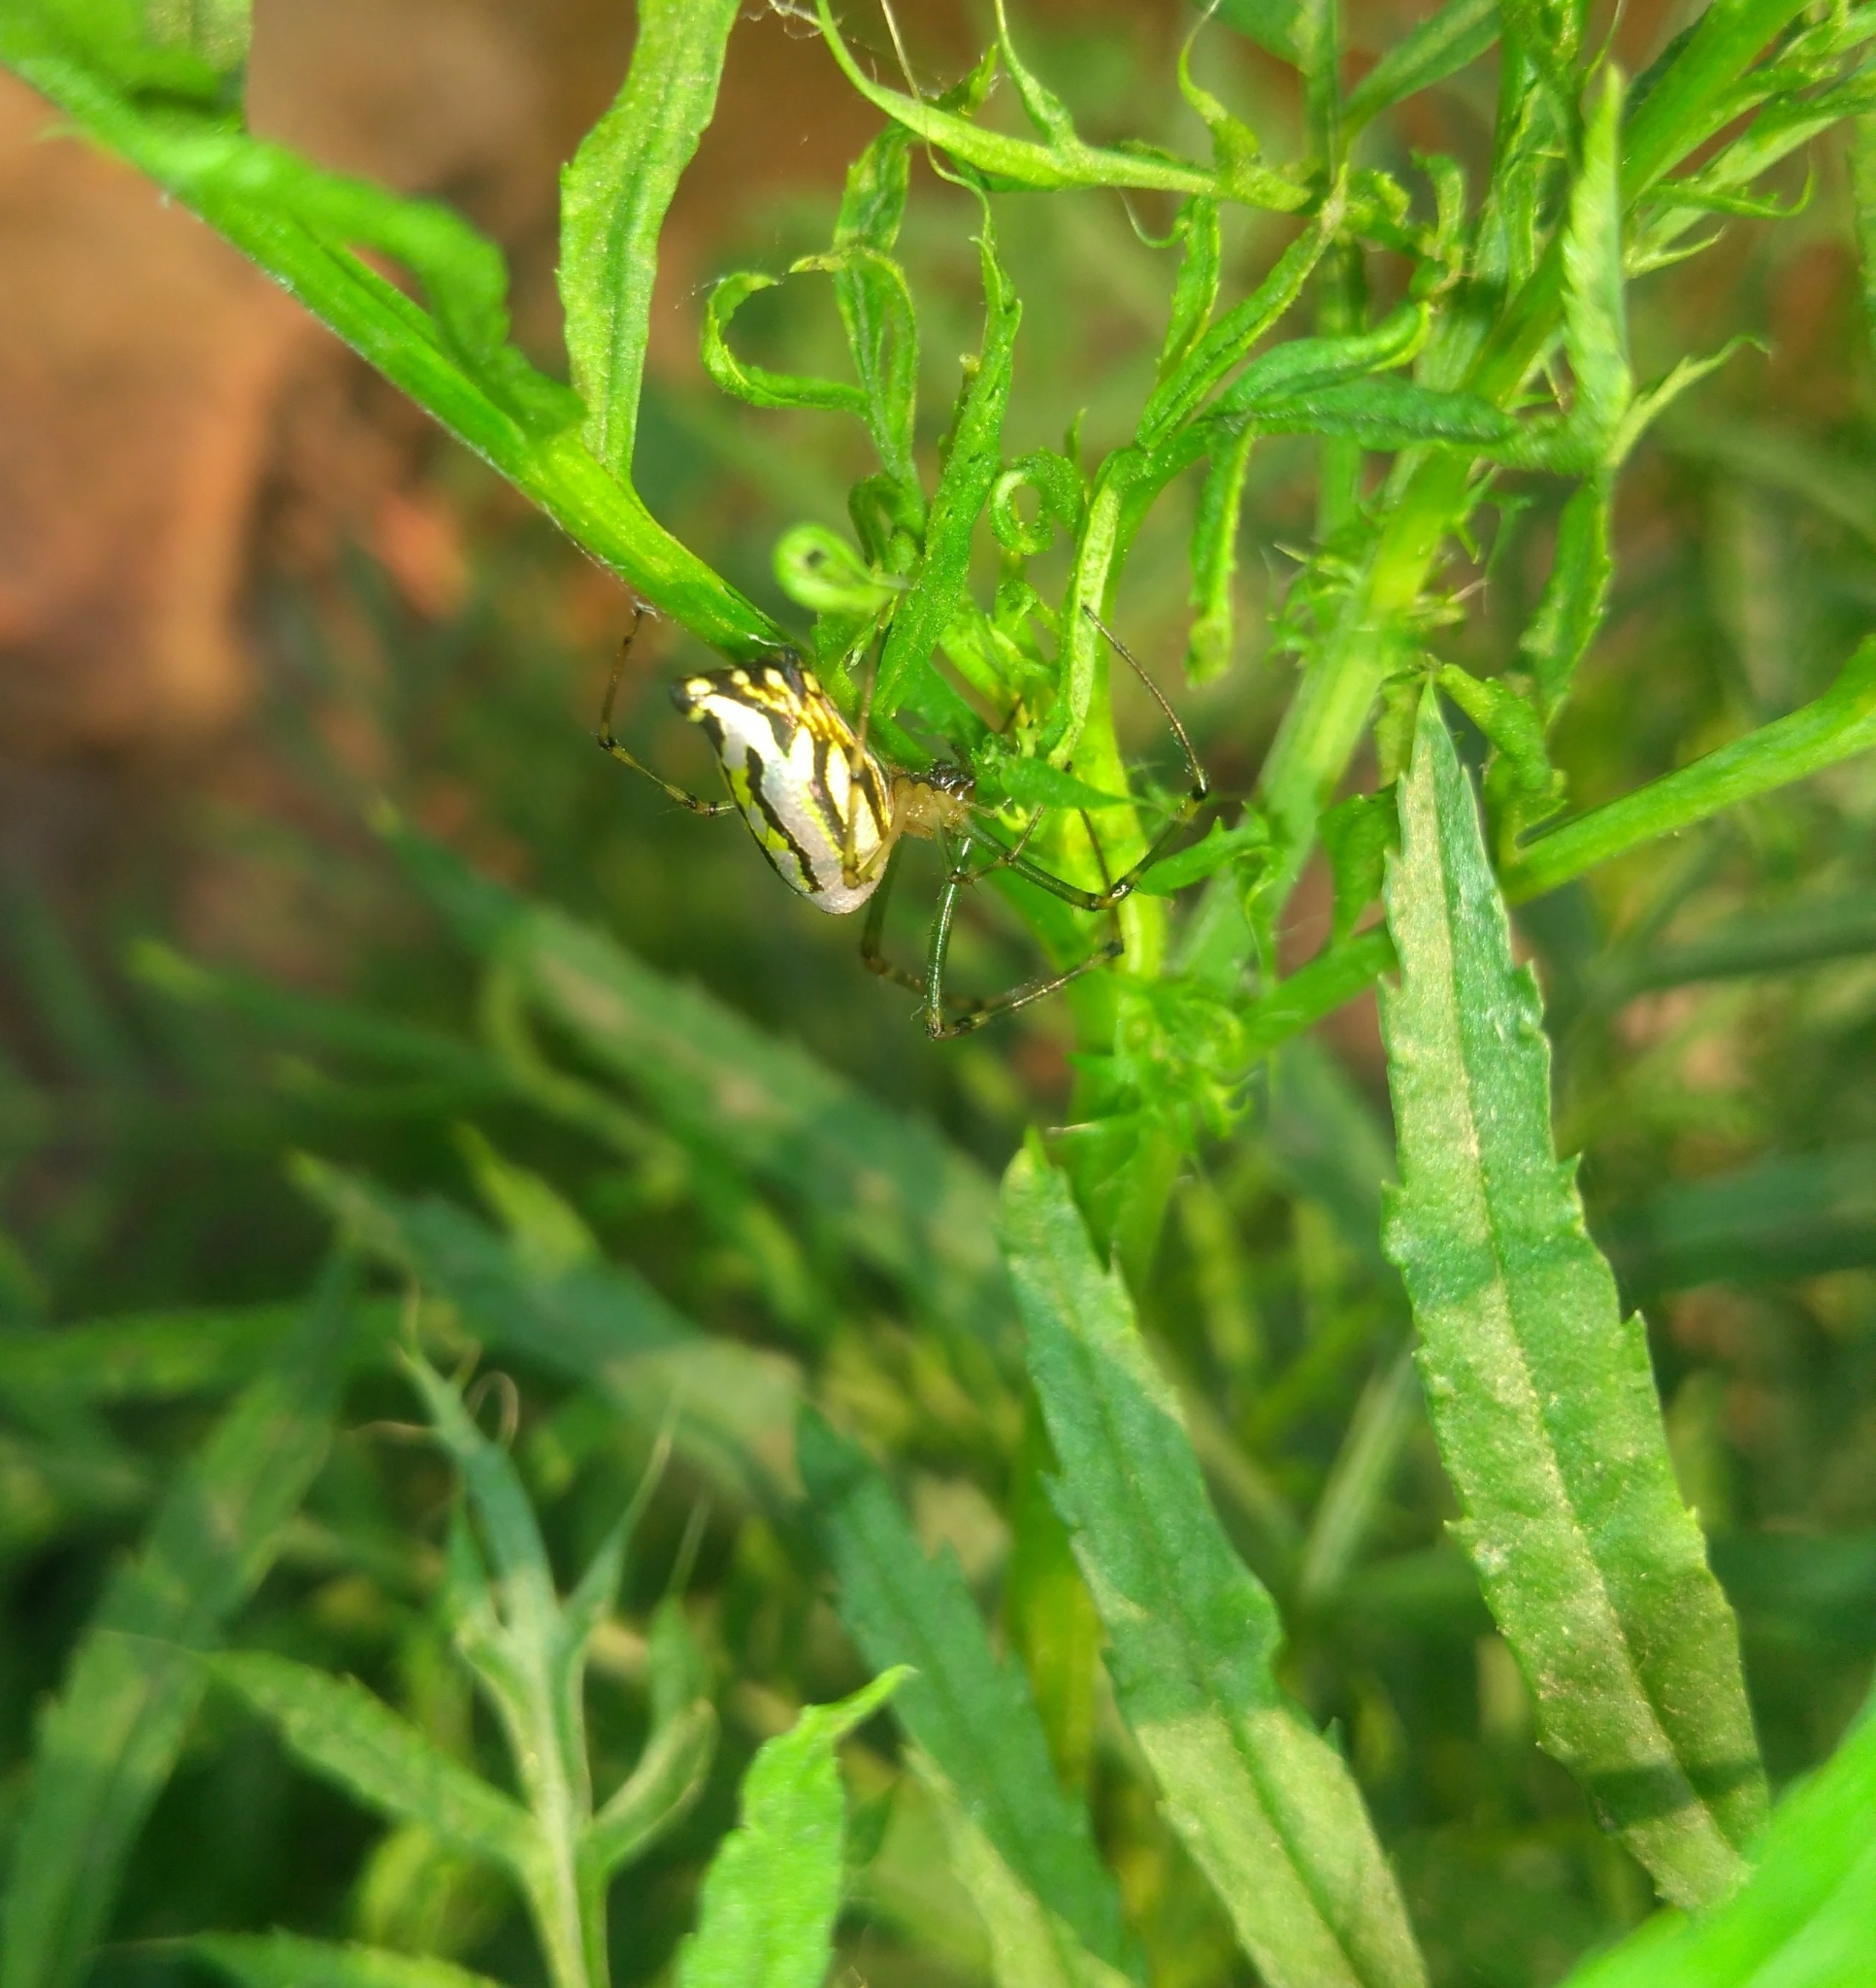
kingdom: Animalia
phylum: Arthropoda
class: Arachnida
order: Araneae
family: Tetragnathidae
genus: Leucauge
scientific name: Leucauge decorata
